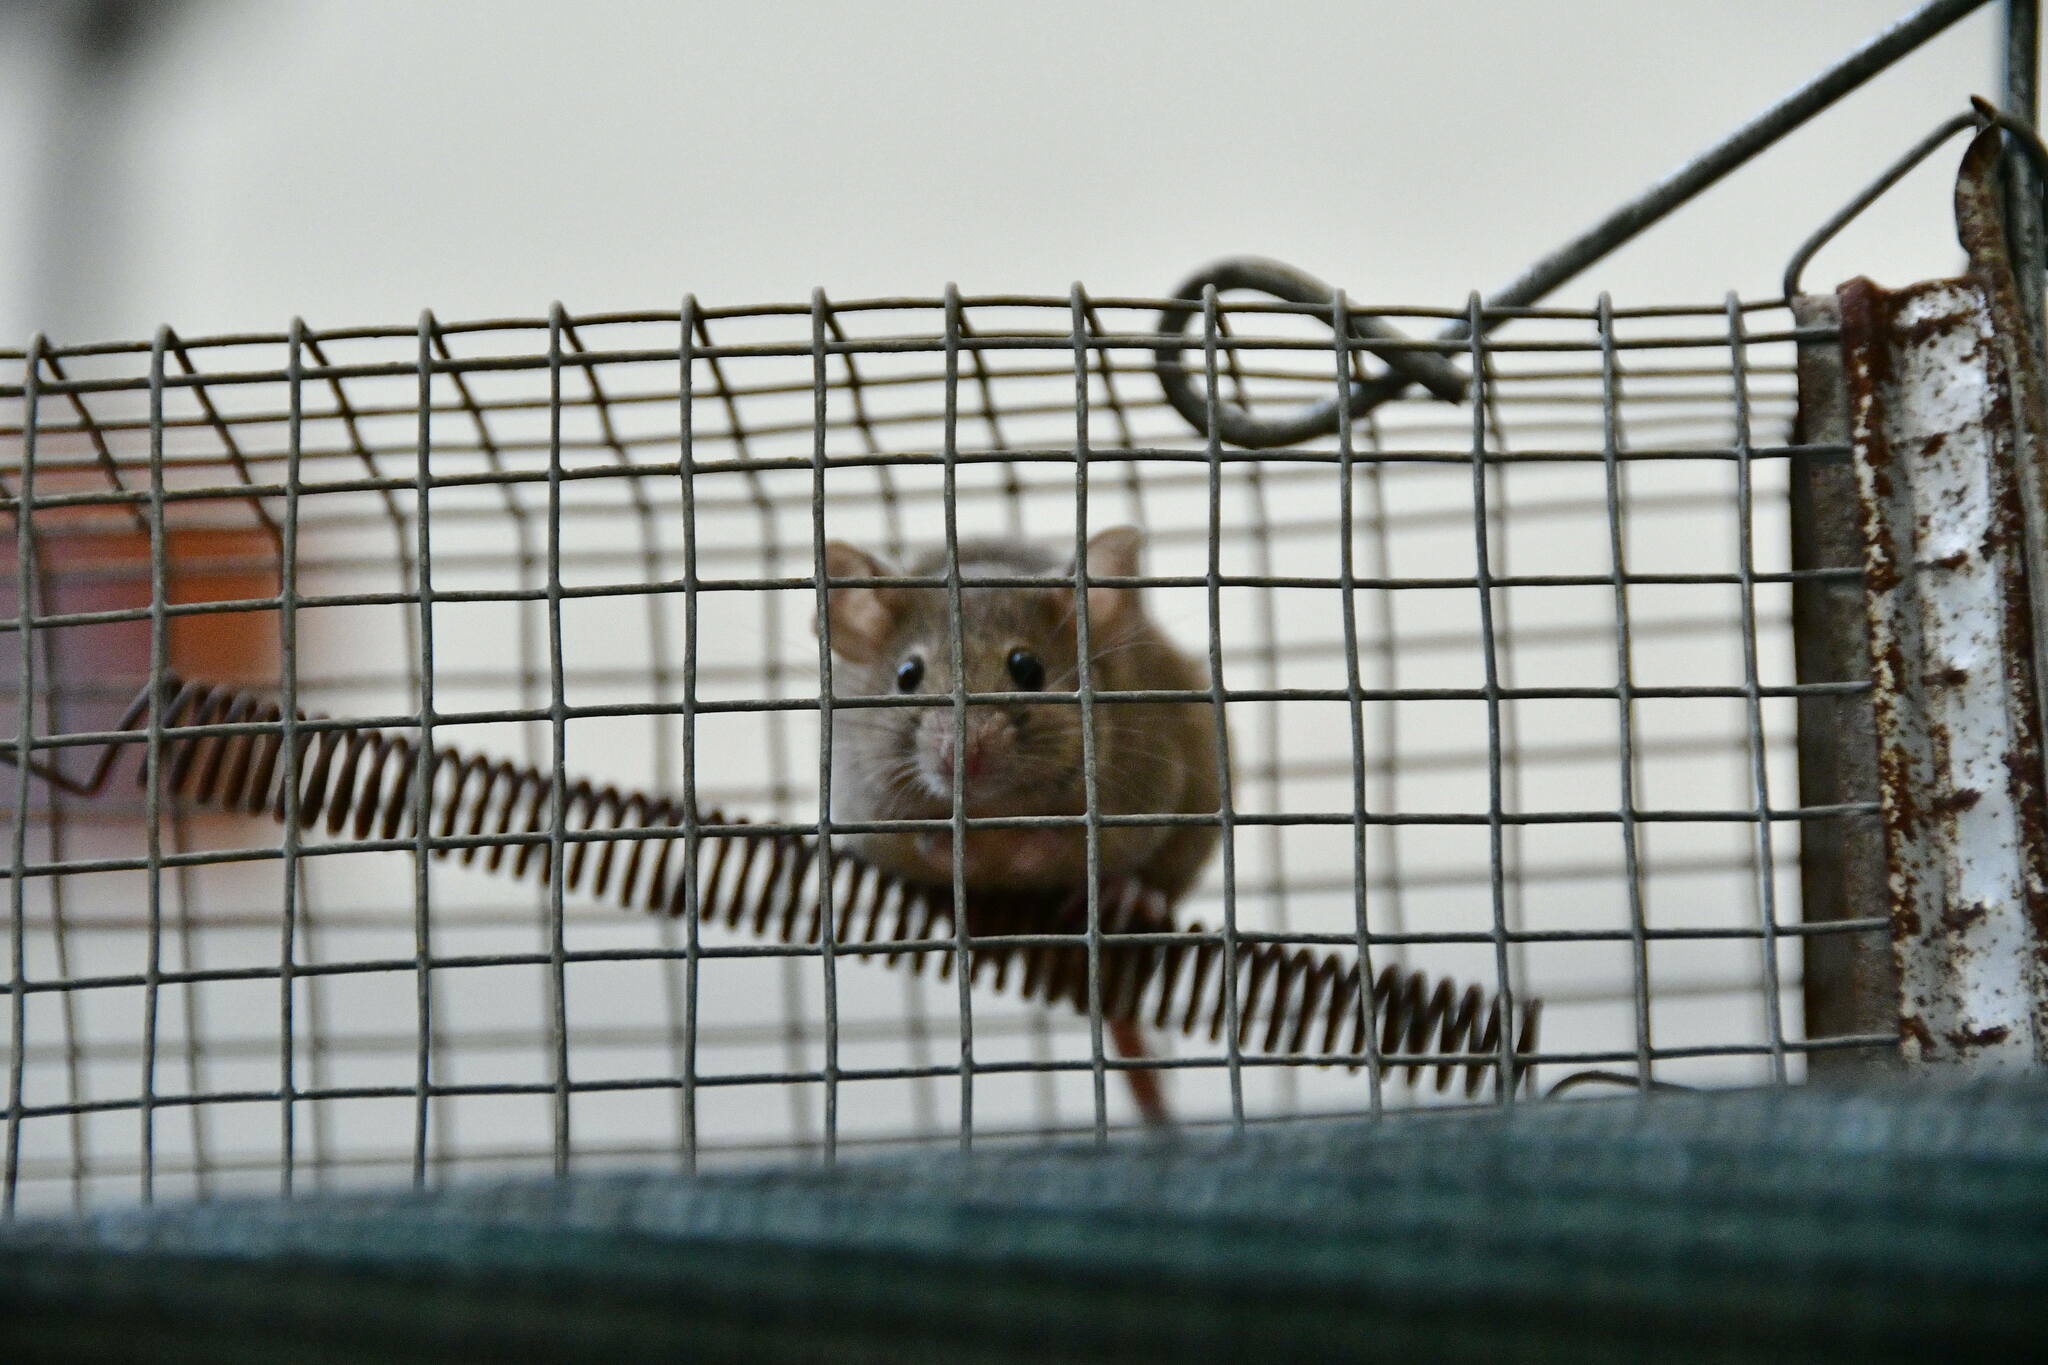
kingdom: Animalia
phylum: Chordata
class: Mammalia
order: Rodentia
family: Muridae
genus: Mus
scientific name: Mus musculus
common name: House mouse
